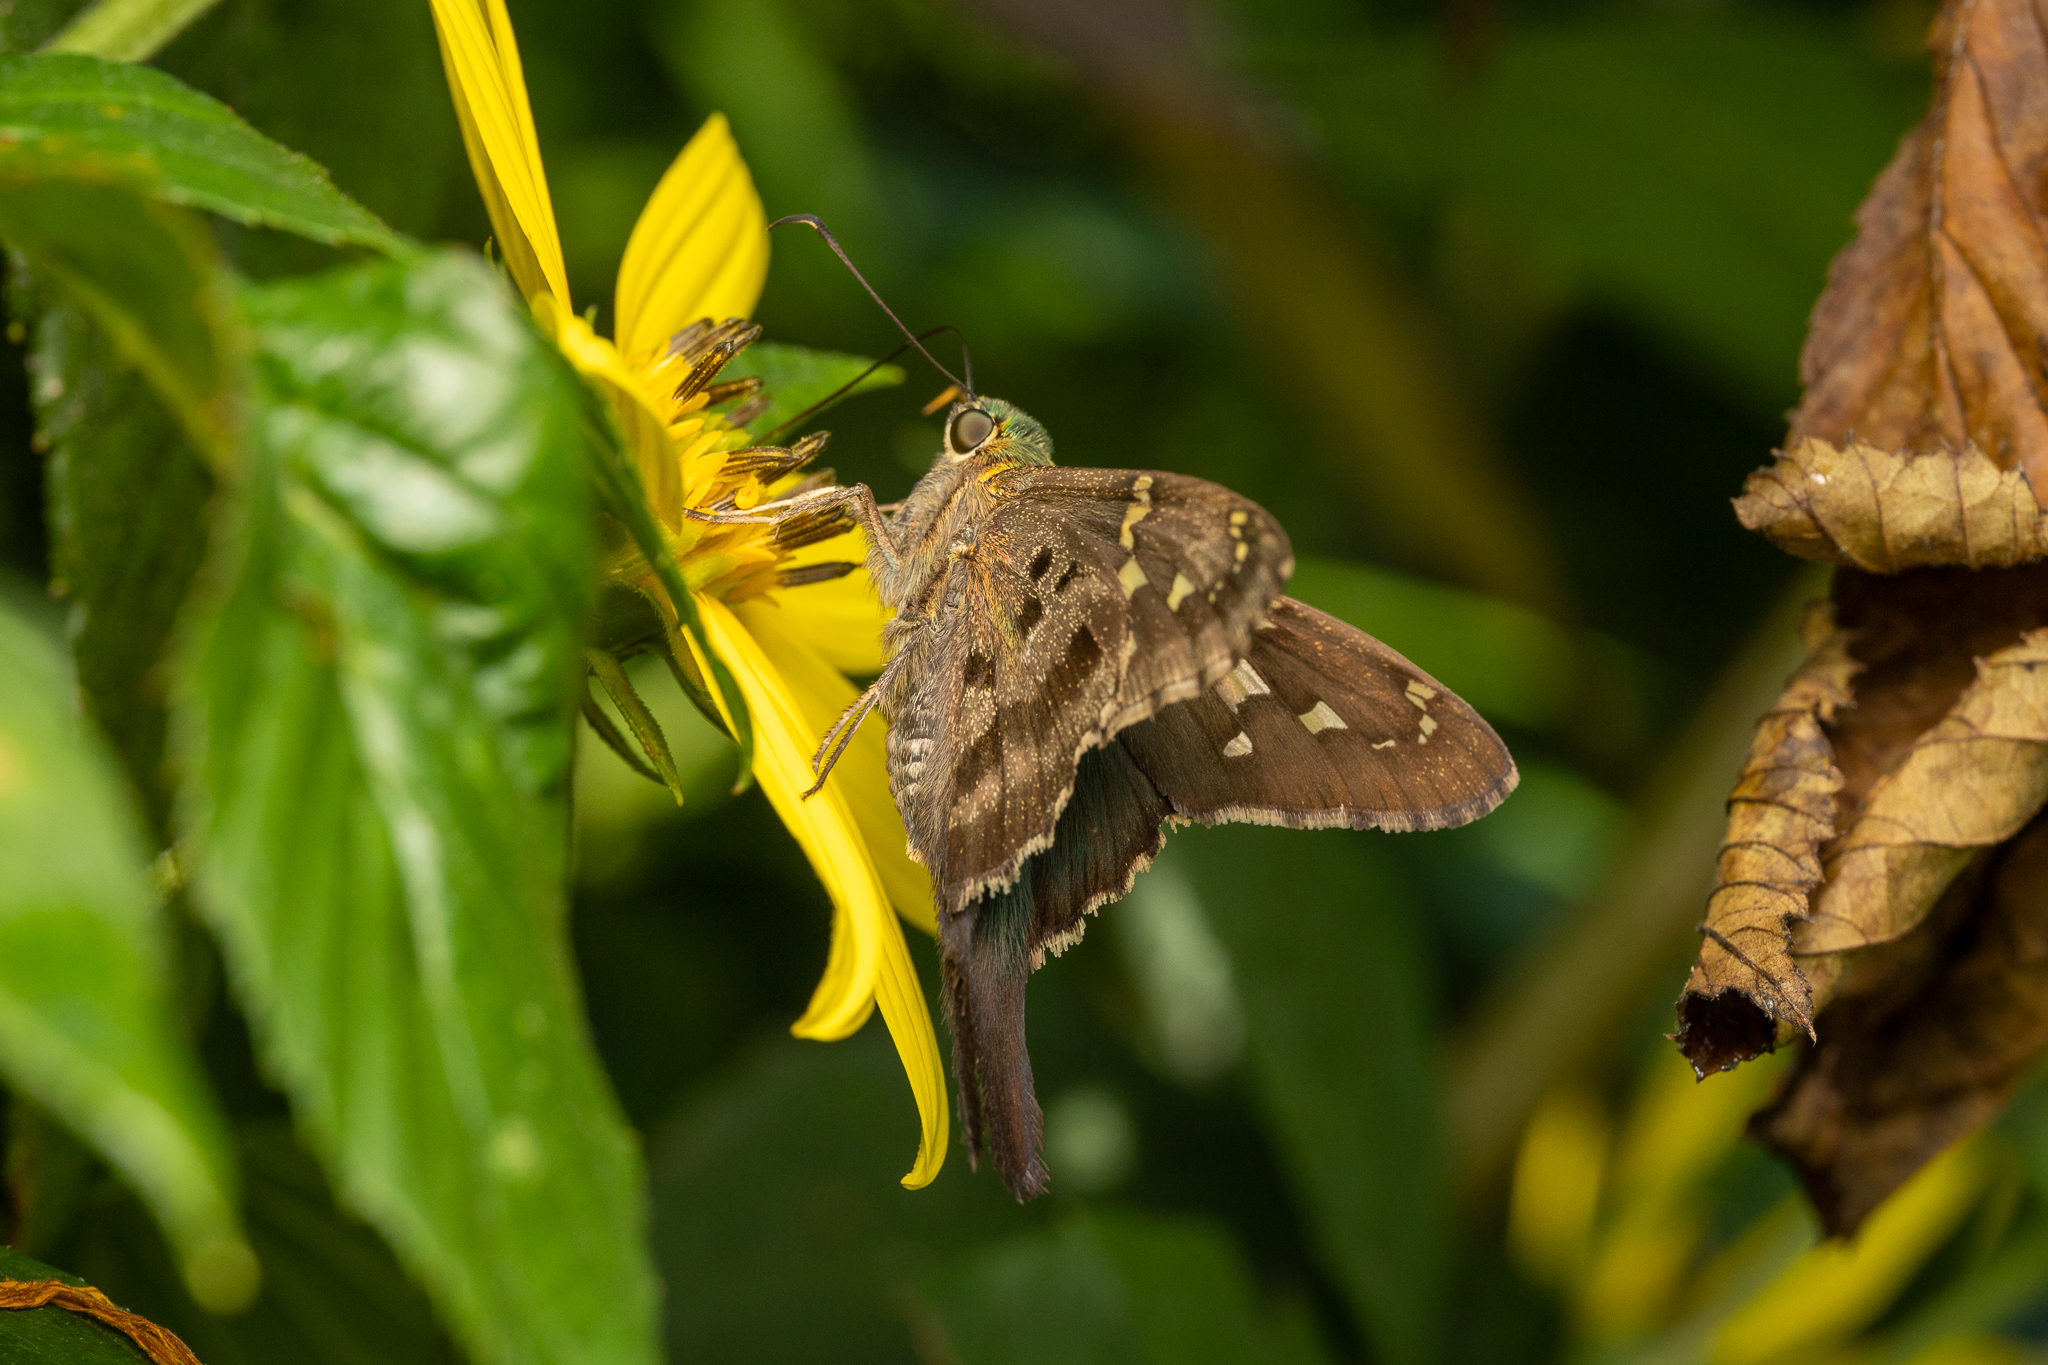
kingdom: Animalia
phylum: Arthropoda
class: Insecta
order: Lepidoptera
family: Hesperiidae
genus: Urbanus
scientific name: Urbanus proteus
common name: Long-tailed skipper
